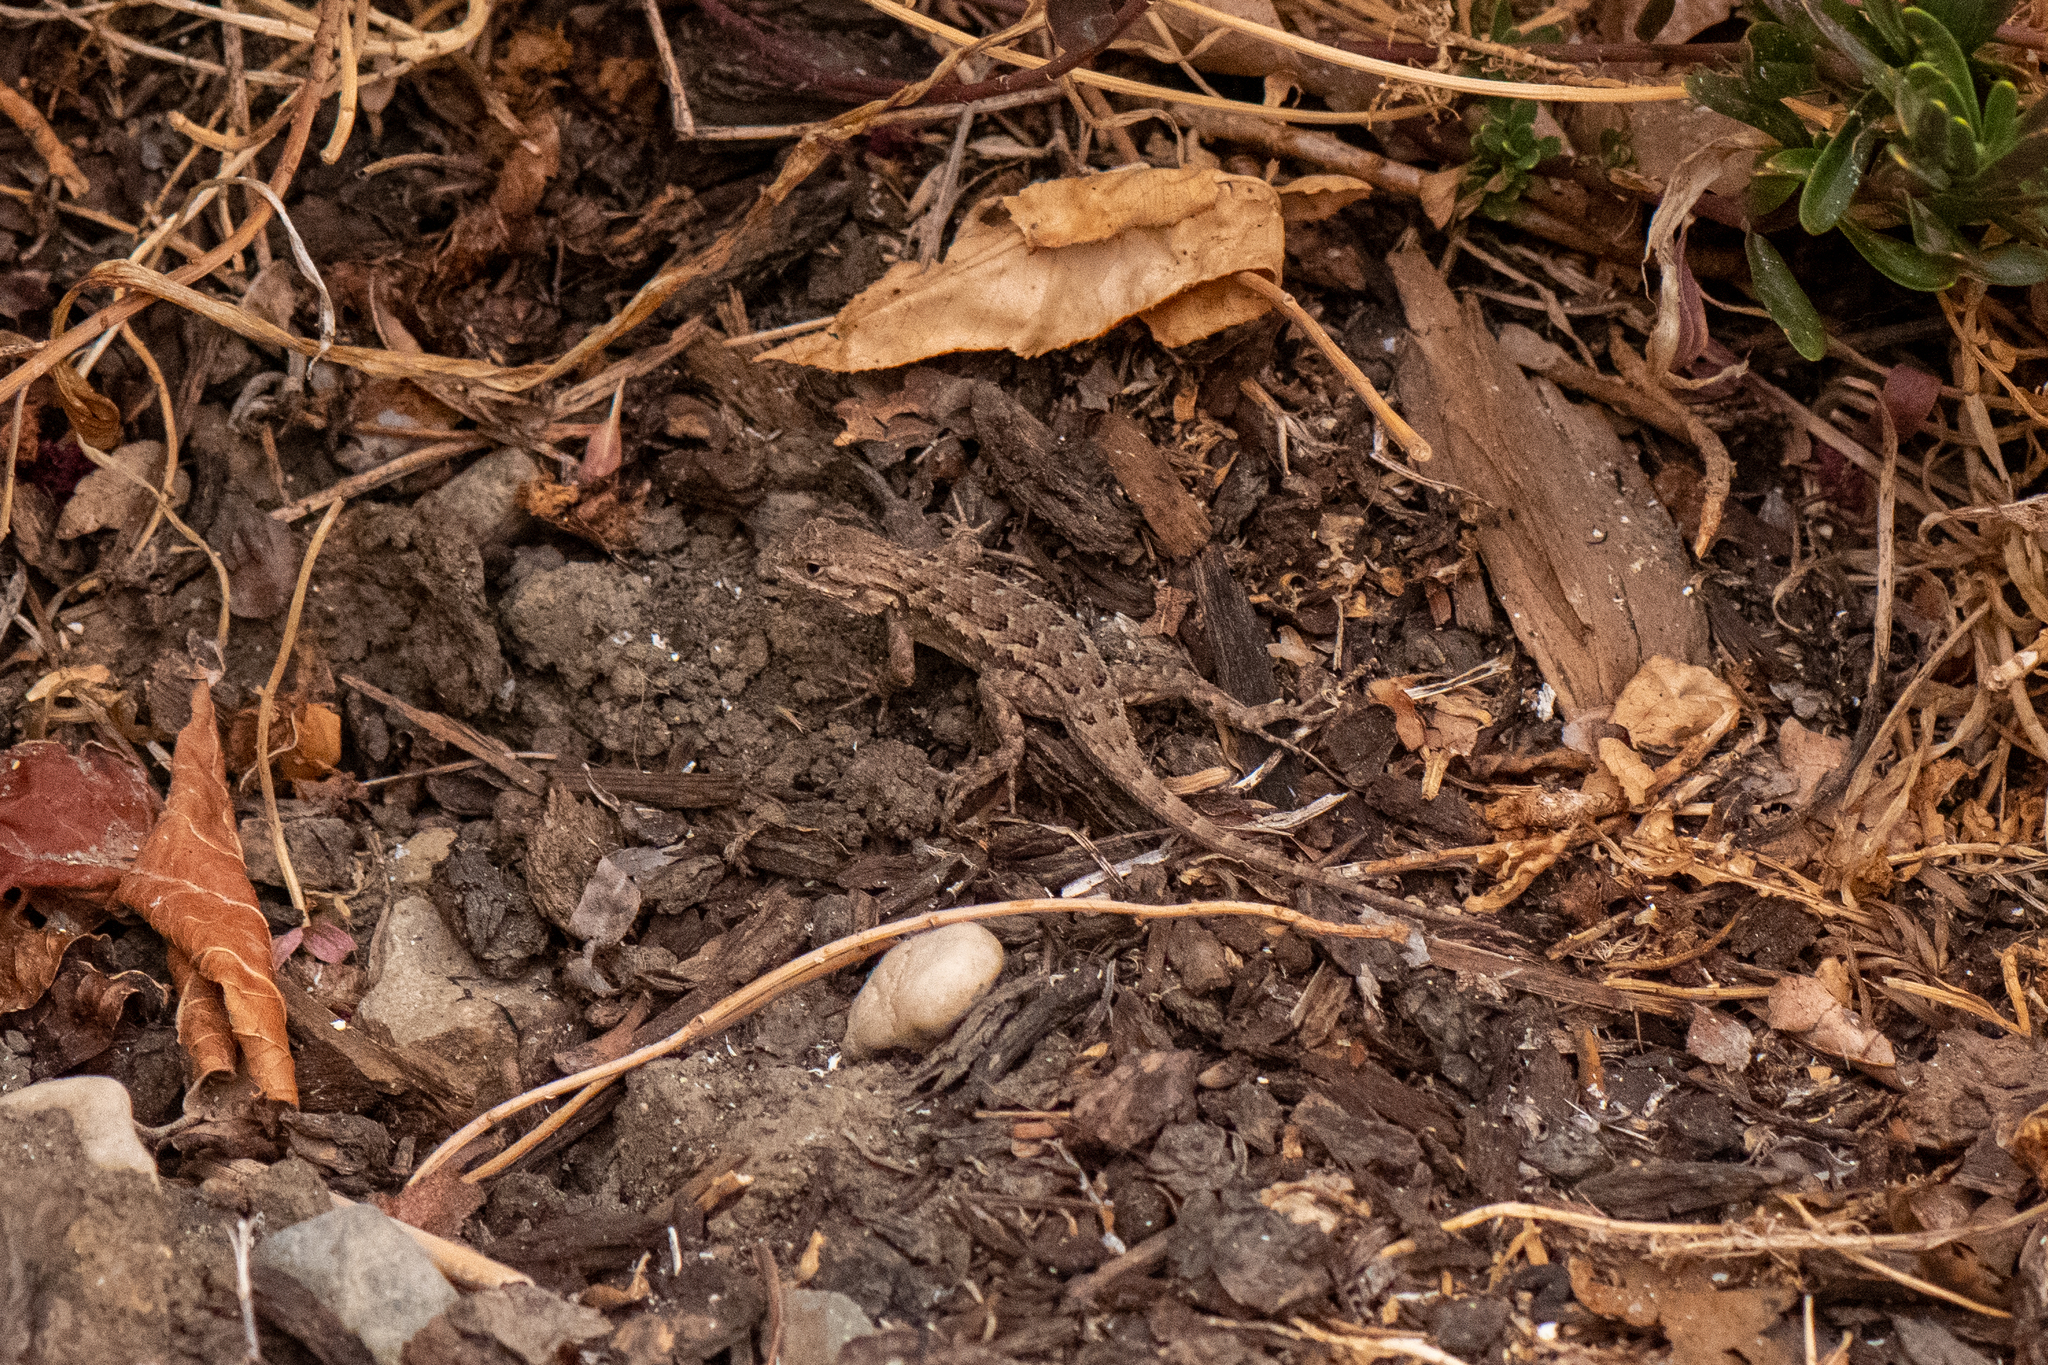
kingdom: Animalia
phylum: Chordata
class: Squamata
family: Phrynosomatidae
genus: Sceloporus
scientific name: Sceloporus occidentalis
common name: Western fence lizard
